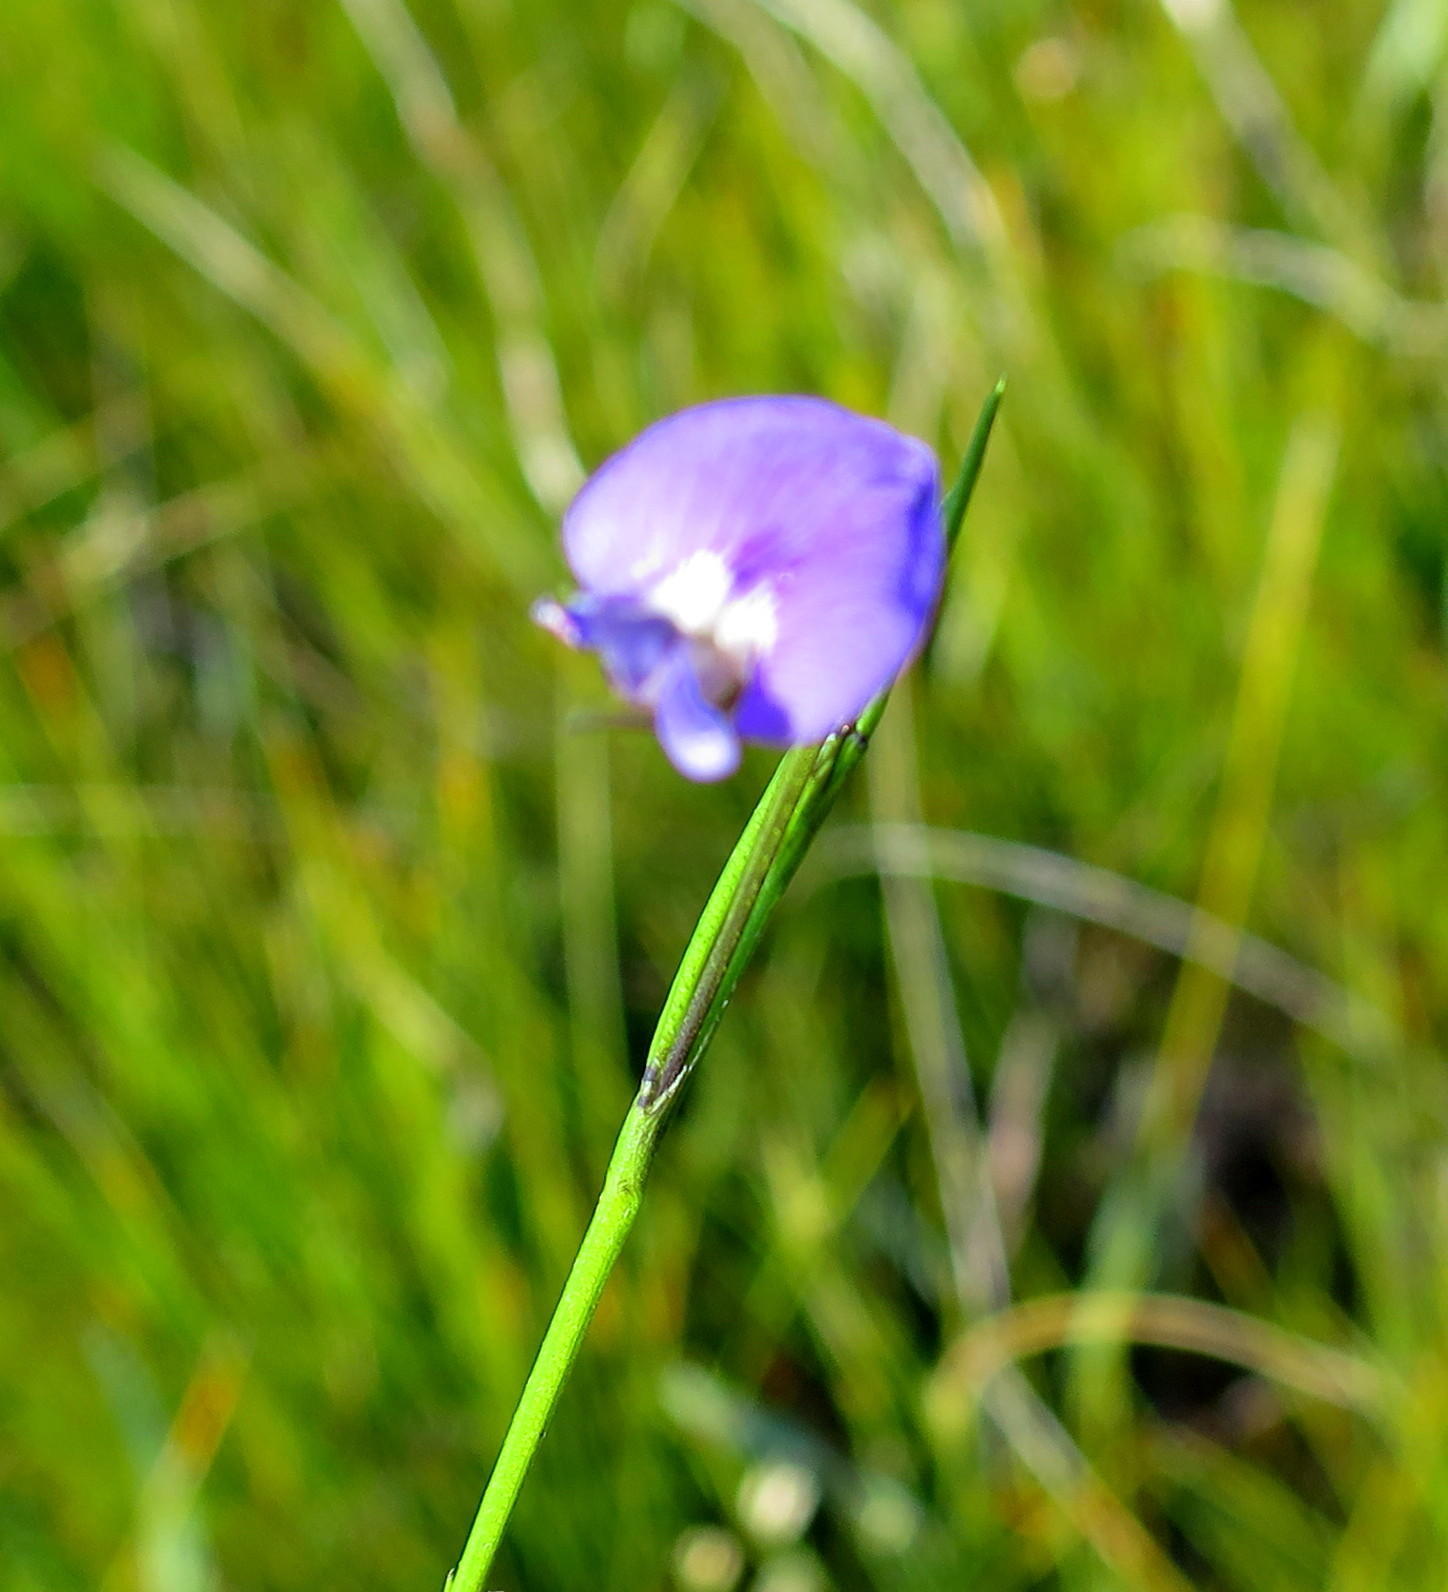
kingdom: Plantae
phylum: Tracheophyta
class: Magnoliopsida
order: Fabales
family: Fabaceae
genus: Psoralea
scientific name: Psoralea trullata
